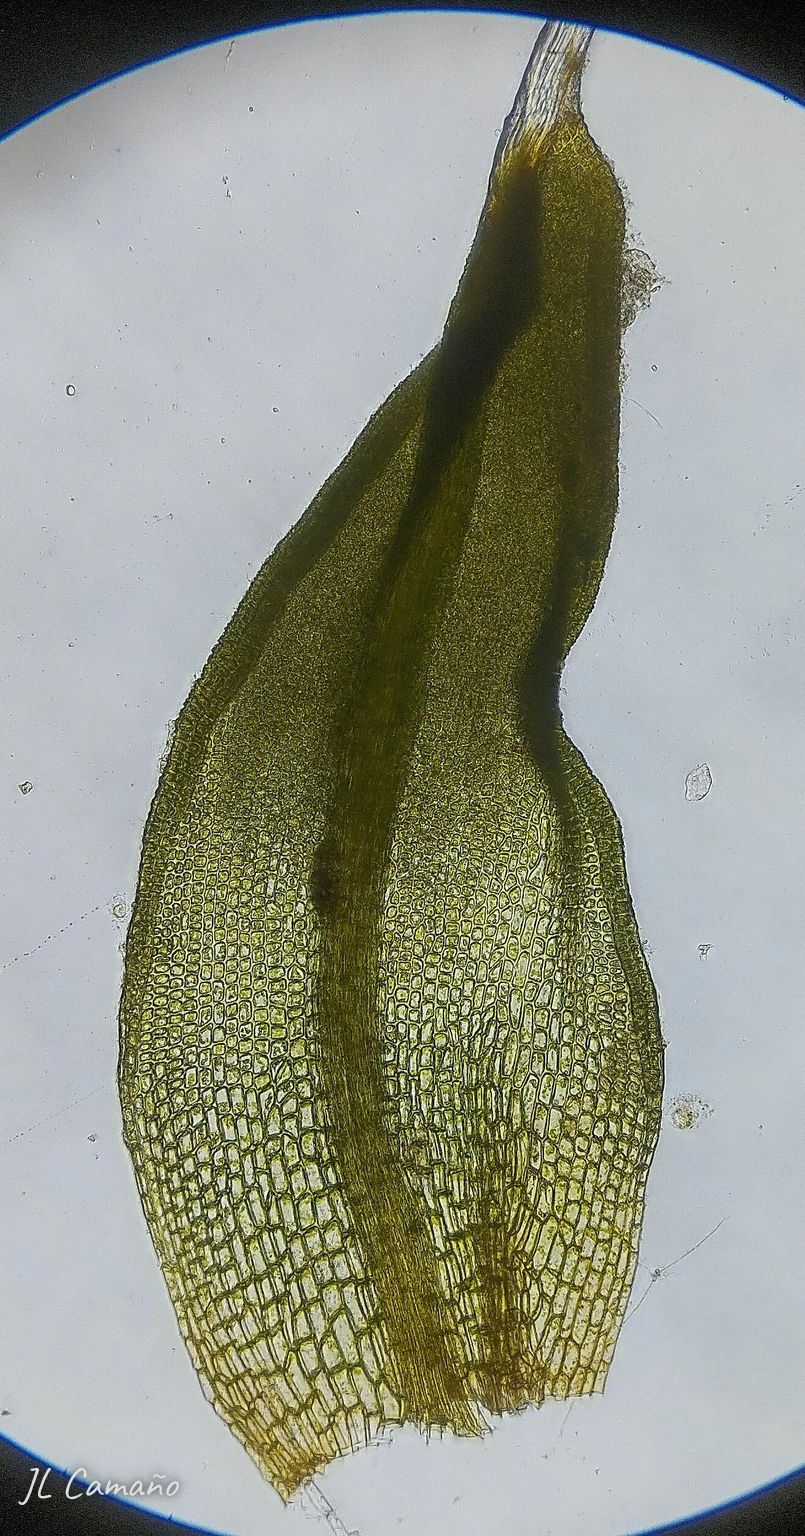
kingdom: Plantae
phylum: Bryophyta
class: Bryopsida
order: Pottiales
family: Pottiaceae
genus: Tortula
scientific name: Tortula muralis
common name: Wall screw-moss
